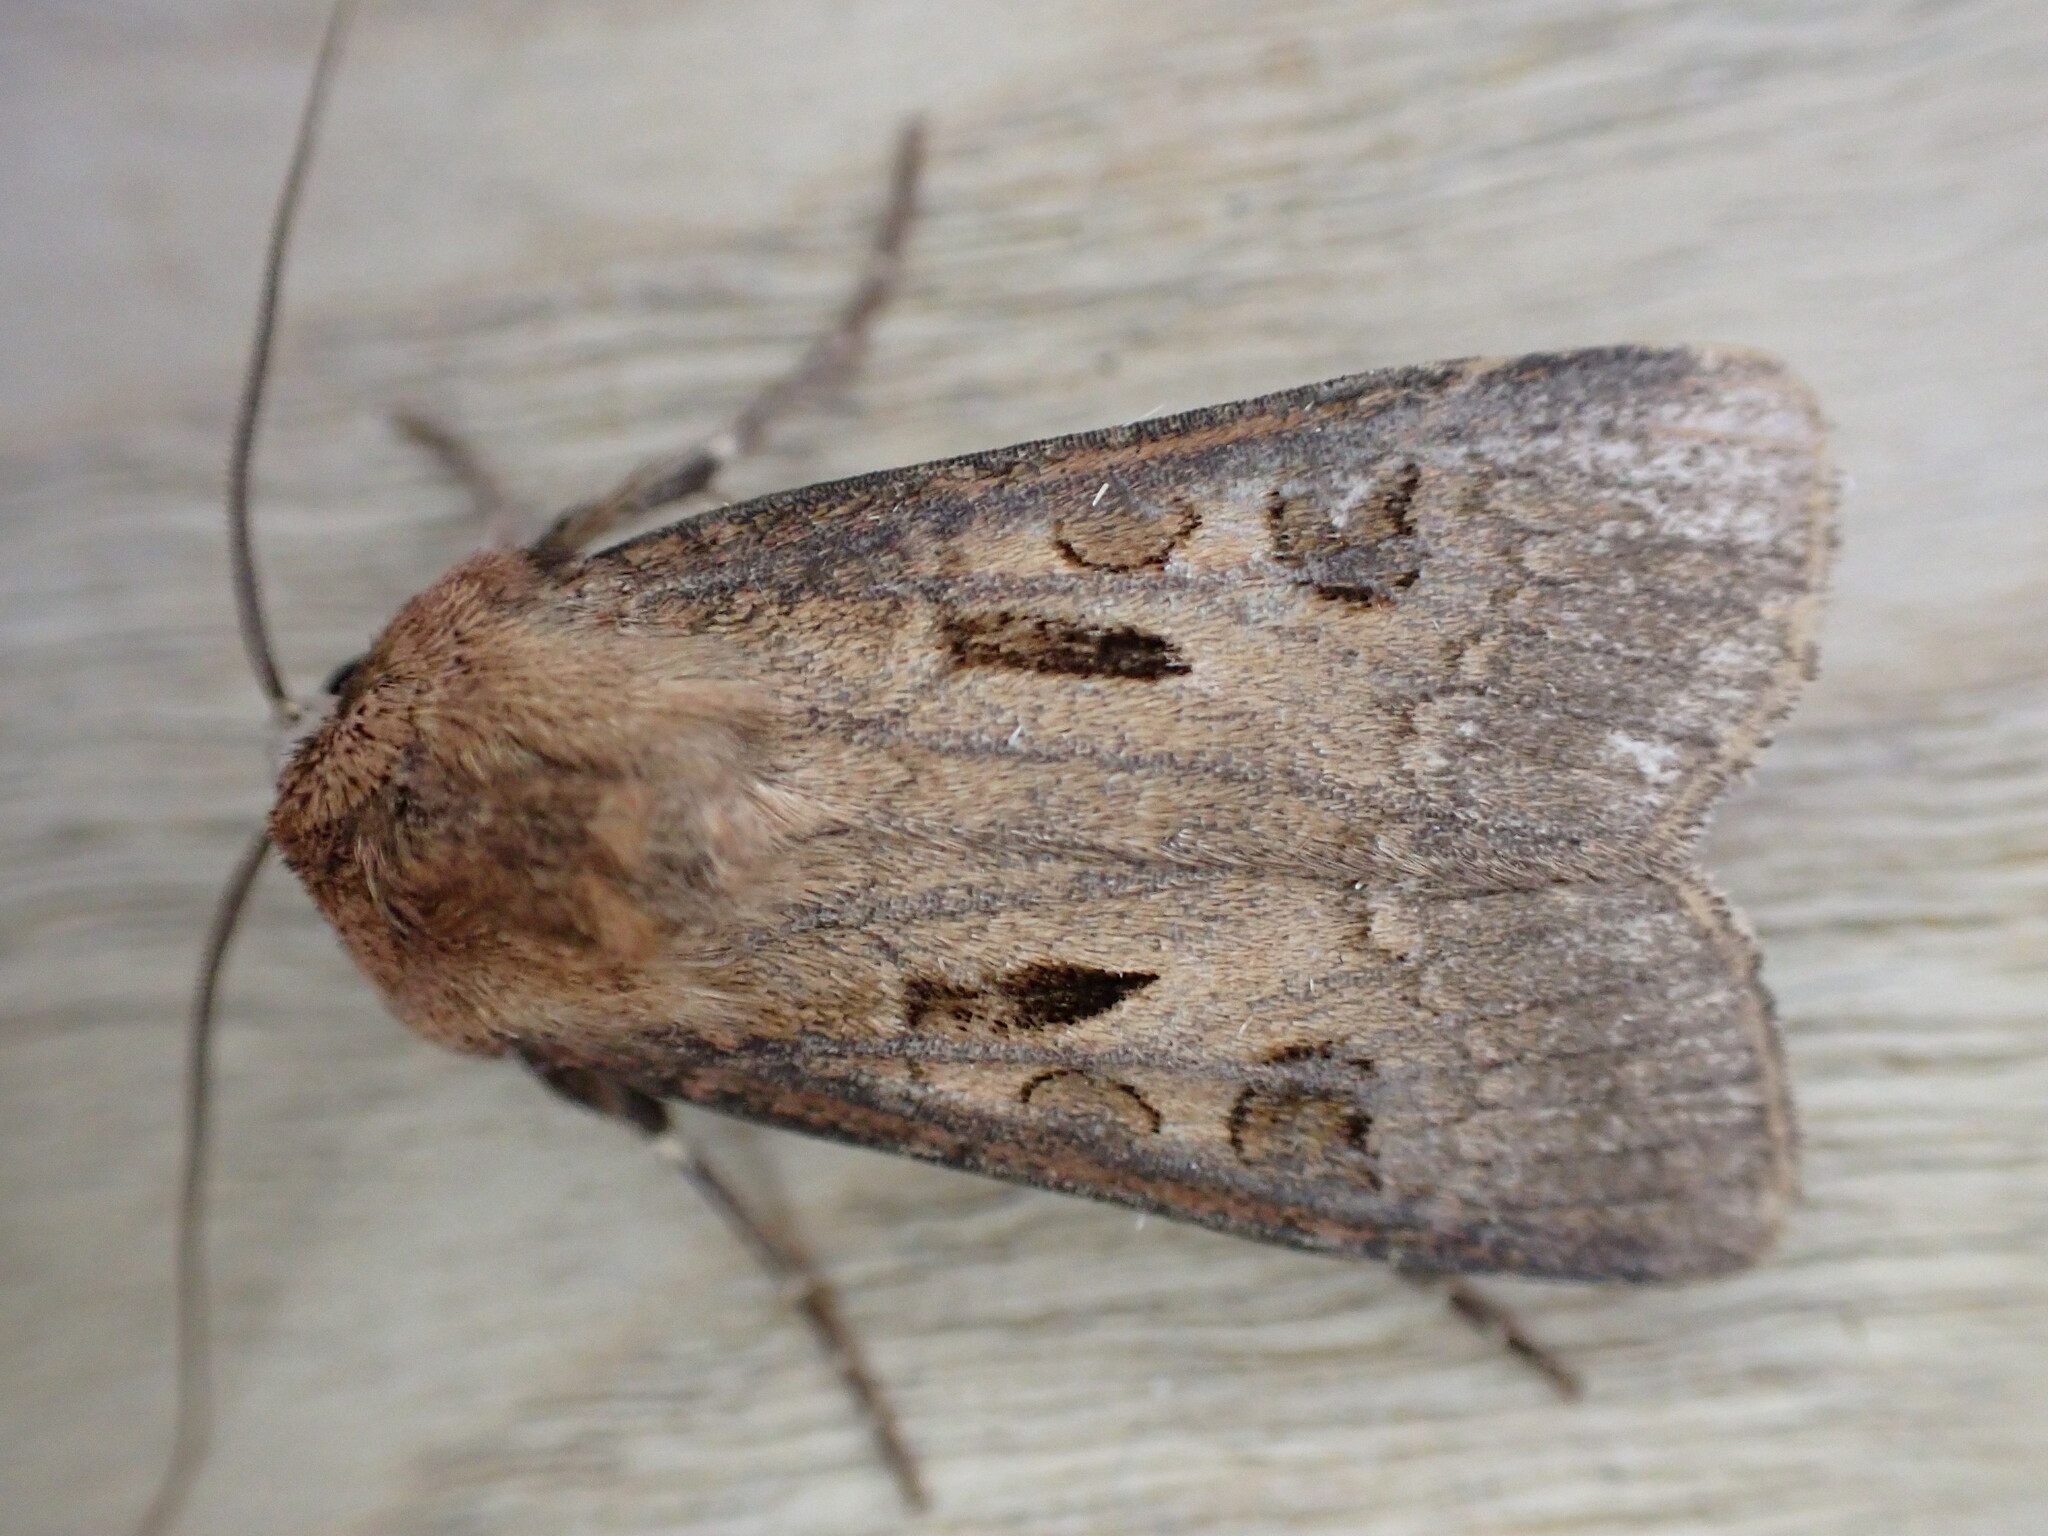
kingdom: Animalia
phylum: Arthropoda
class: Insecta
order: Lepidoptera
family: Noctuidae
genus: Agrotis
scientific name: Agrotis exclamationis
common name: Heart and dart
